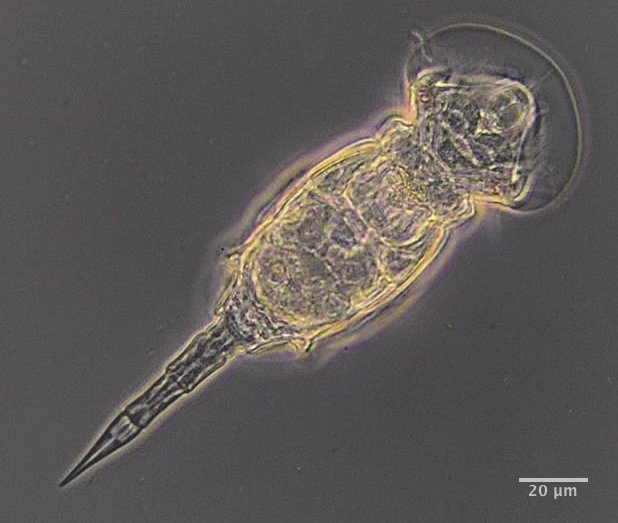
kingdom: Animalia
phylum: Rotifera
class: Eurotatoria
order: Ploima
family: Lepadellidae
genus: Squatinella
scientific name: Squatinella
